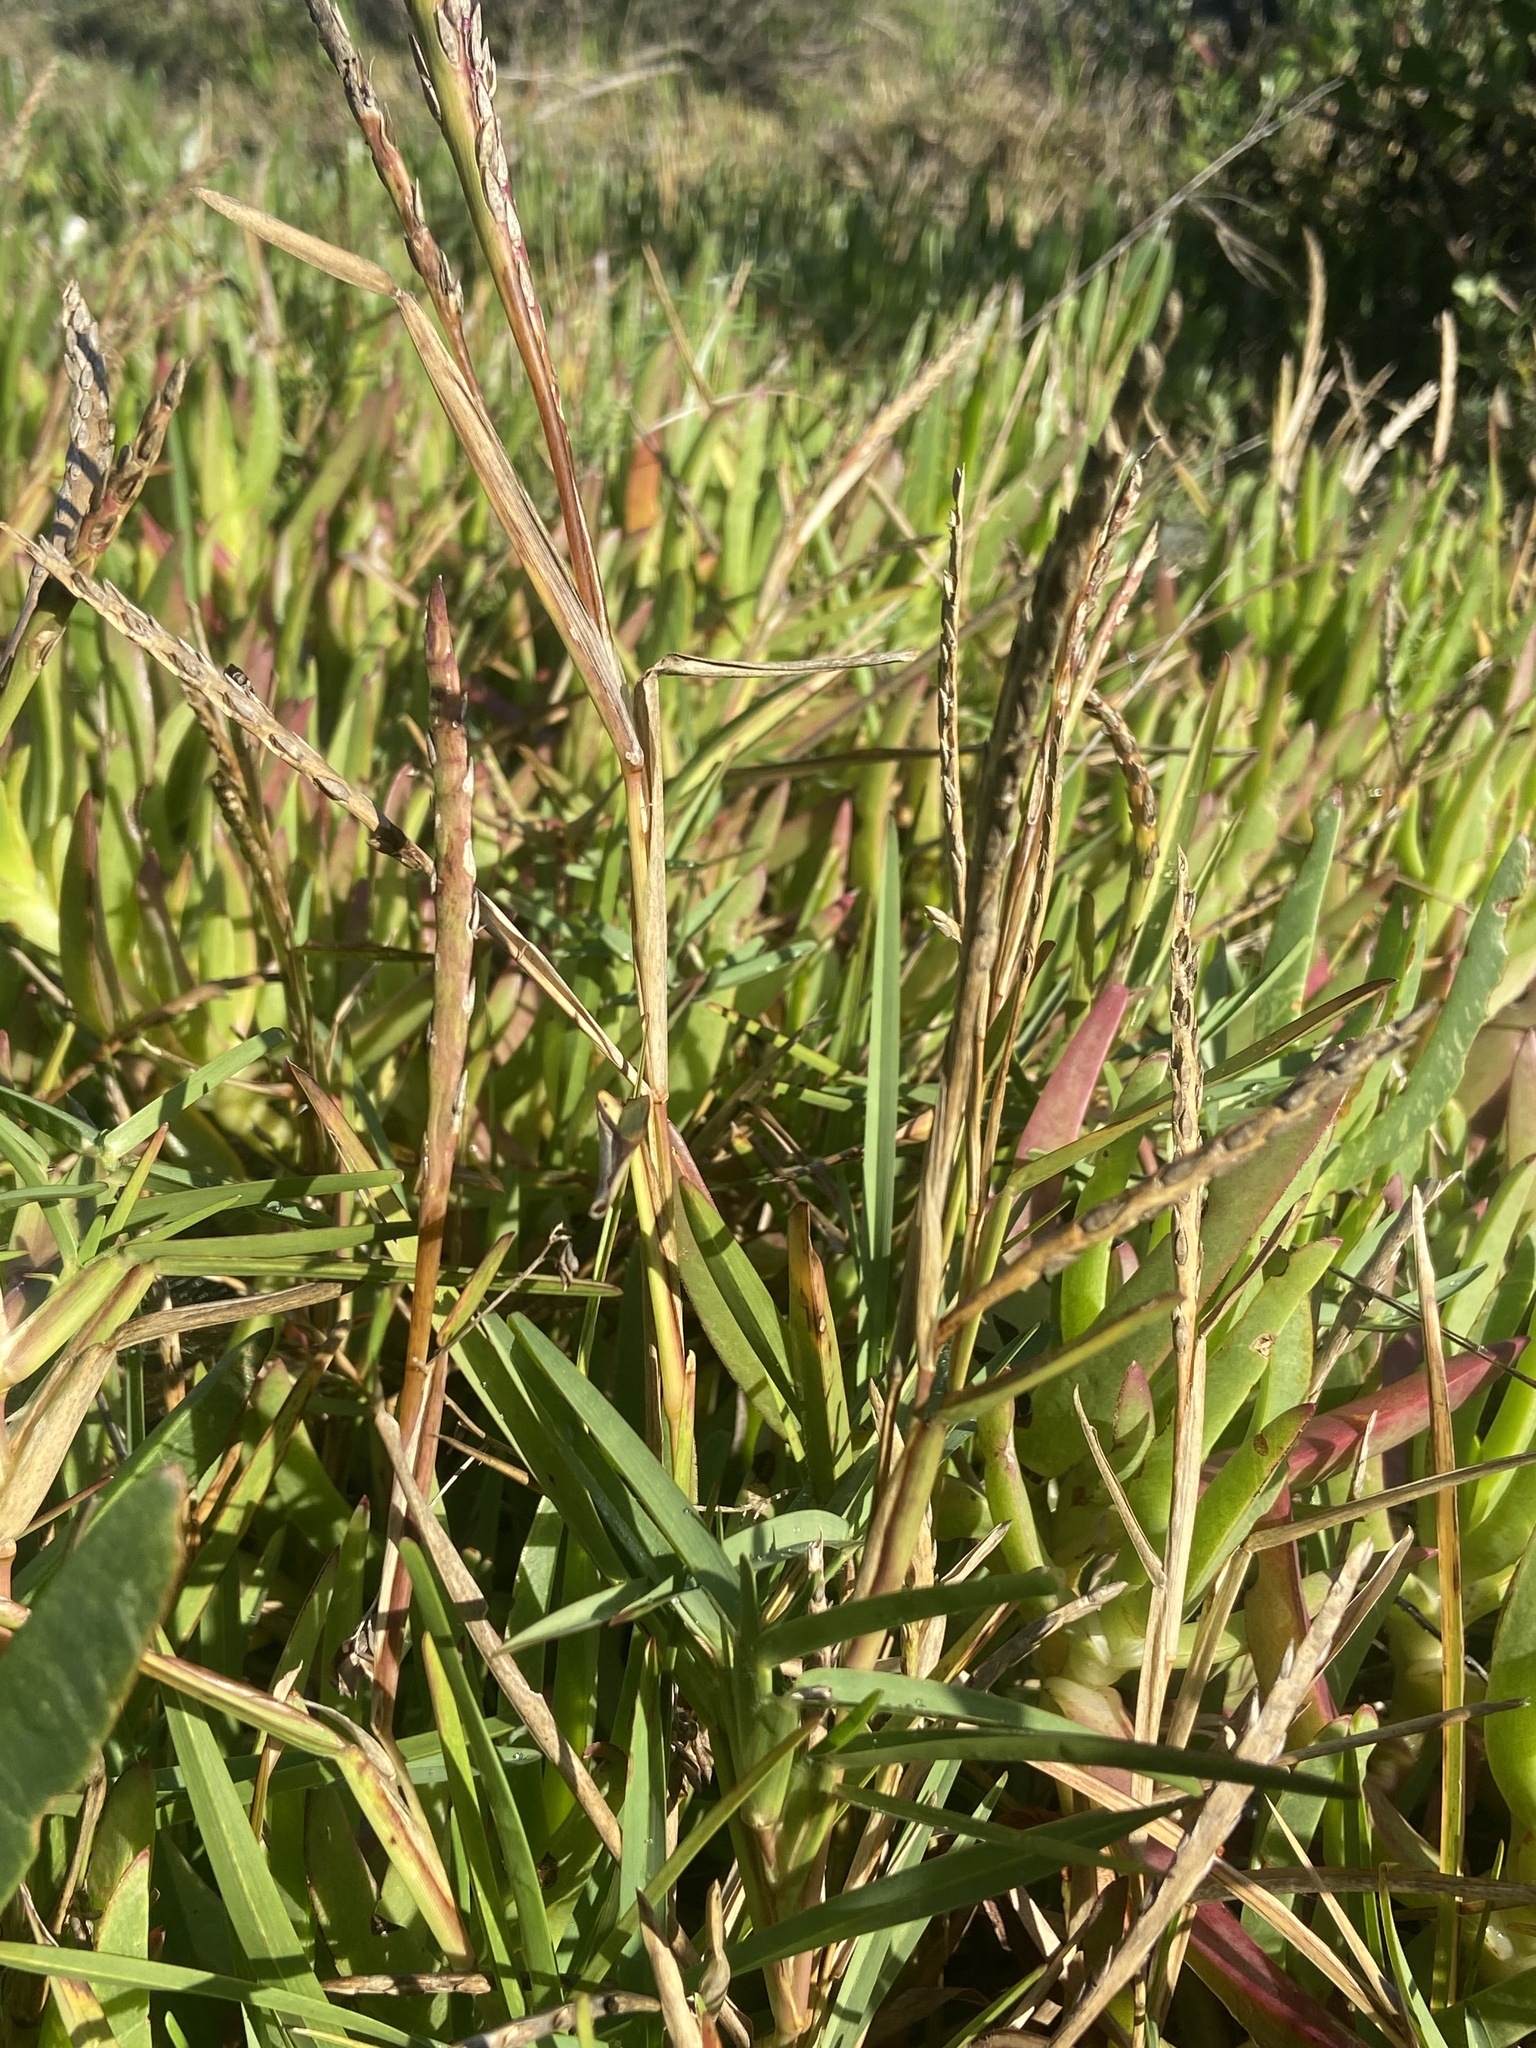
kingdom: Plantae
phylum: Tracheophyta
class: Liliopsida
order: Poales
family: Poaceae
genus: Stenotaphrum
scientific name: Stenotaphrum secundatum
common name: St. augustine grass
